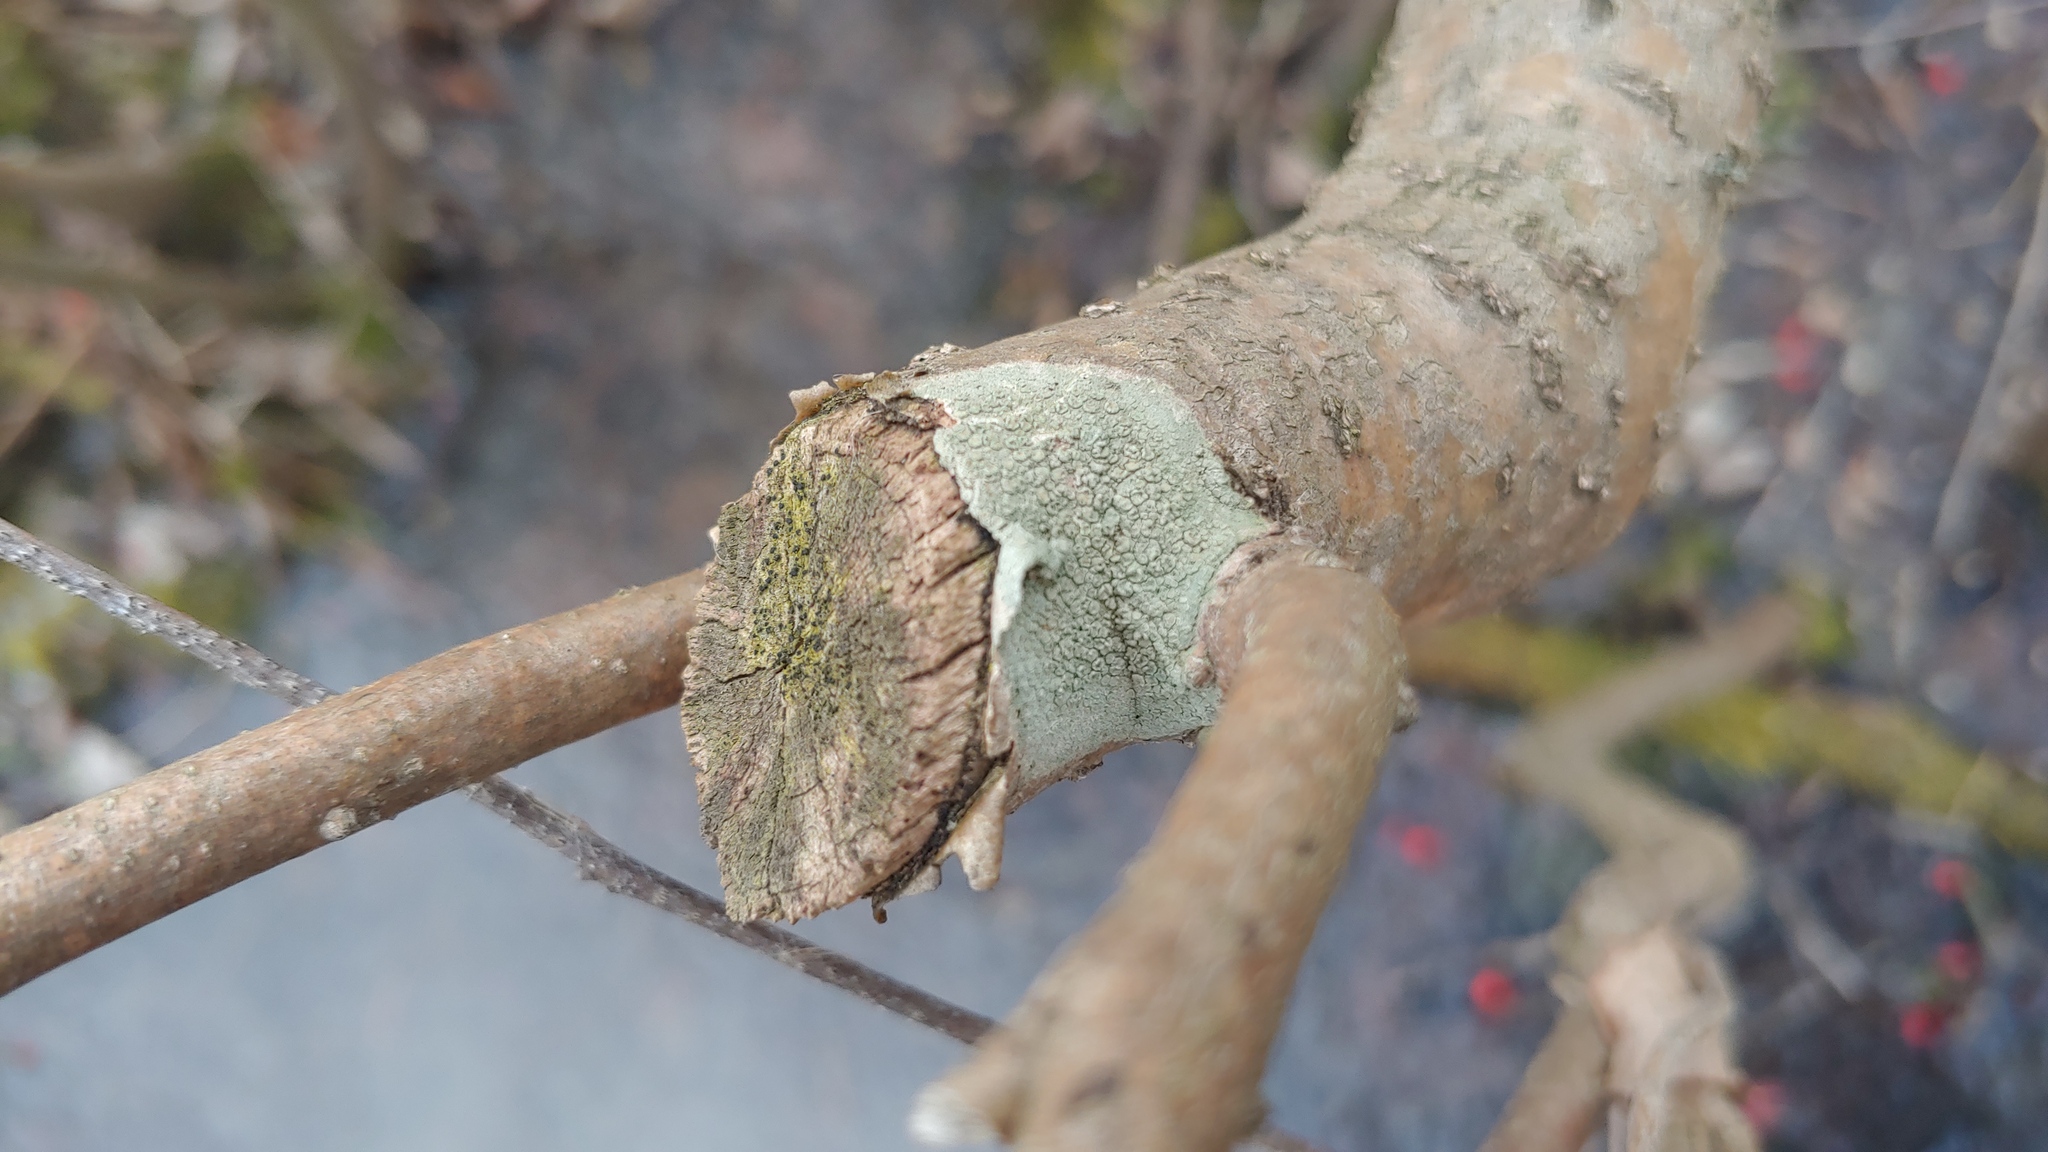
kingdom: Fungi
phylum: Ascomycota
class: Lecanoromycetes
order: Lecanorales
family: Lecanoraceae
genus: Lecanora
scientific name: Lecanora strobilina
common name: Mealy rim-lichen
